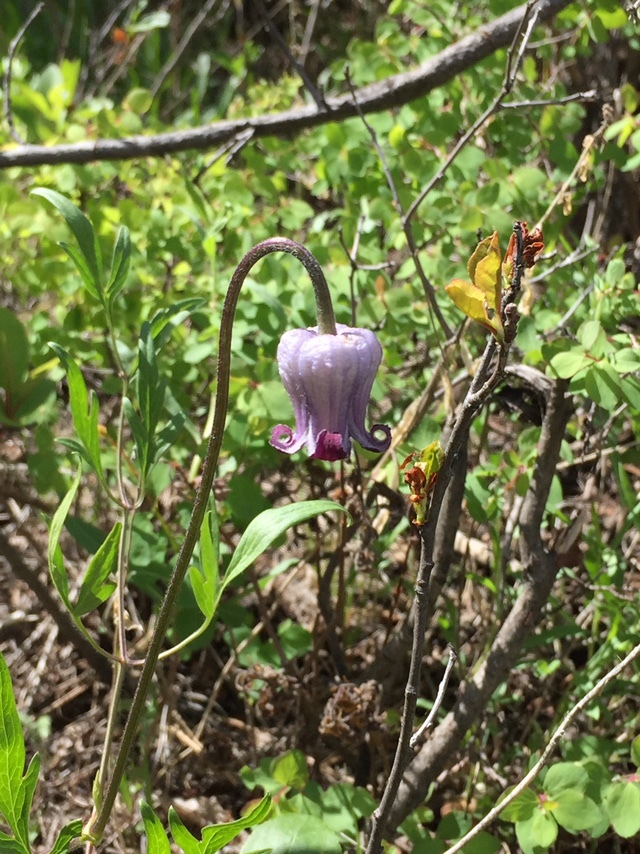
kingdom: Plantae
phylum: Tracheophyta
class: Magnoliopsida
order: Ranunculales
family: Ranunculaceae
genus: Clematis
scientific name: Clematis hirsutissima
